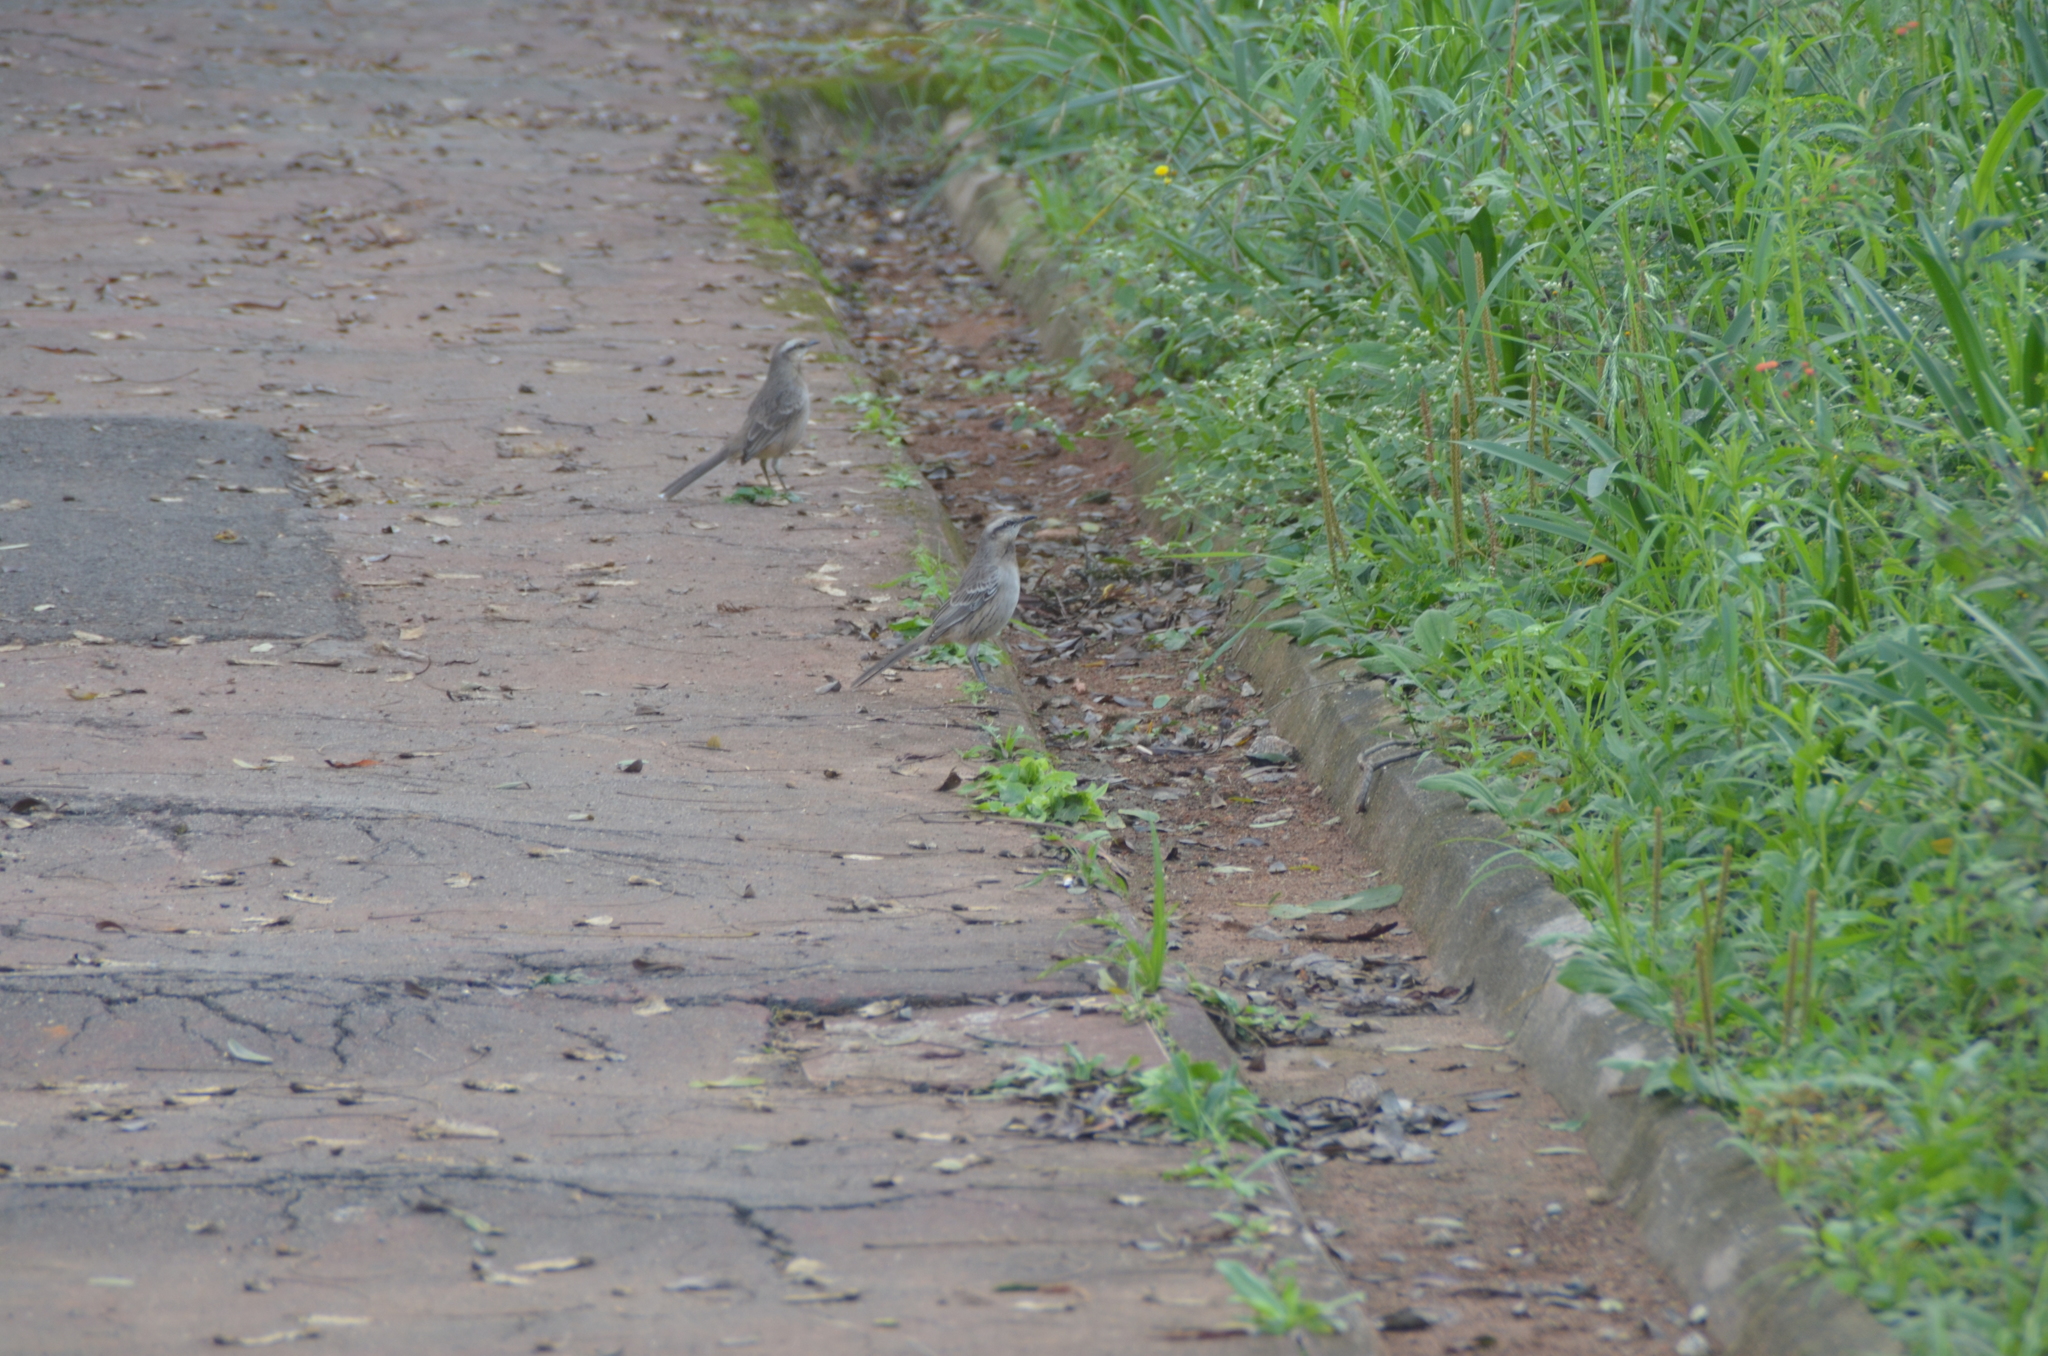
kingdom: Animalia
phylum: Chordata
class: Aves
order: Passeriformes
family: Mimidae
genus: Mimus
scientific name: Mimus saturninus
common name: Chalk-browed mockingbird
